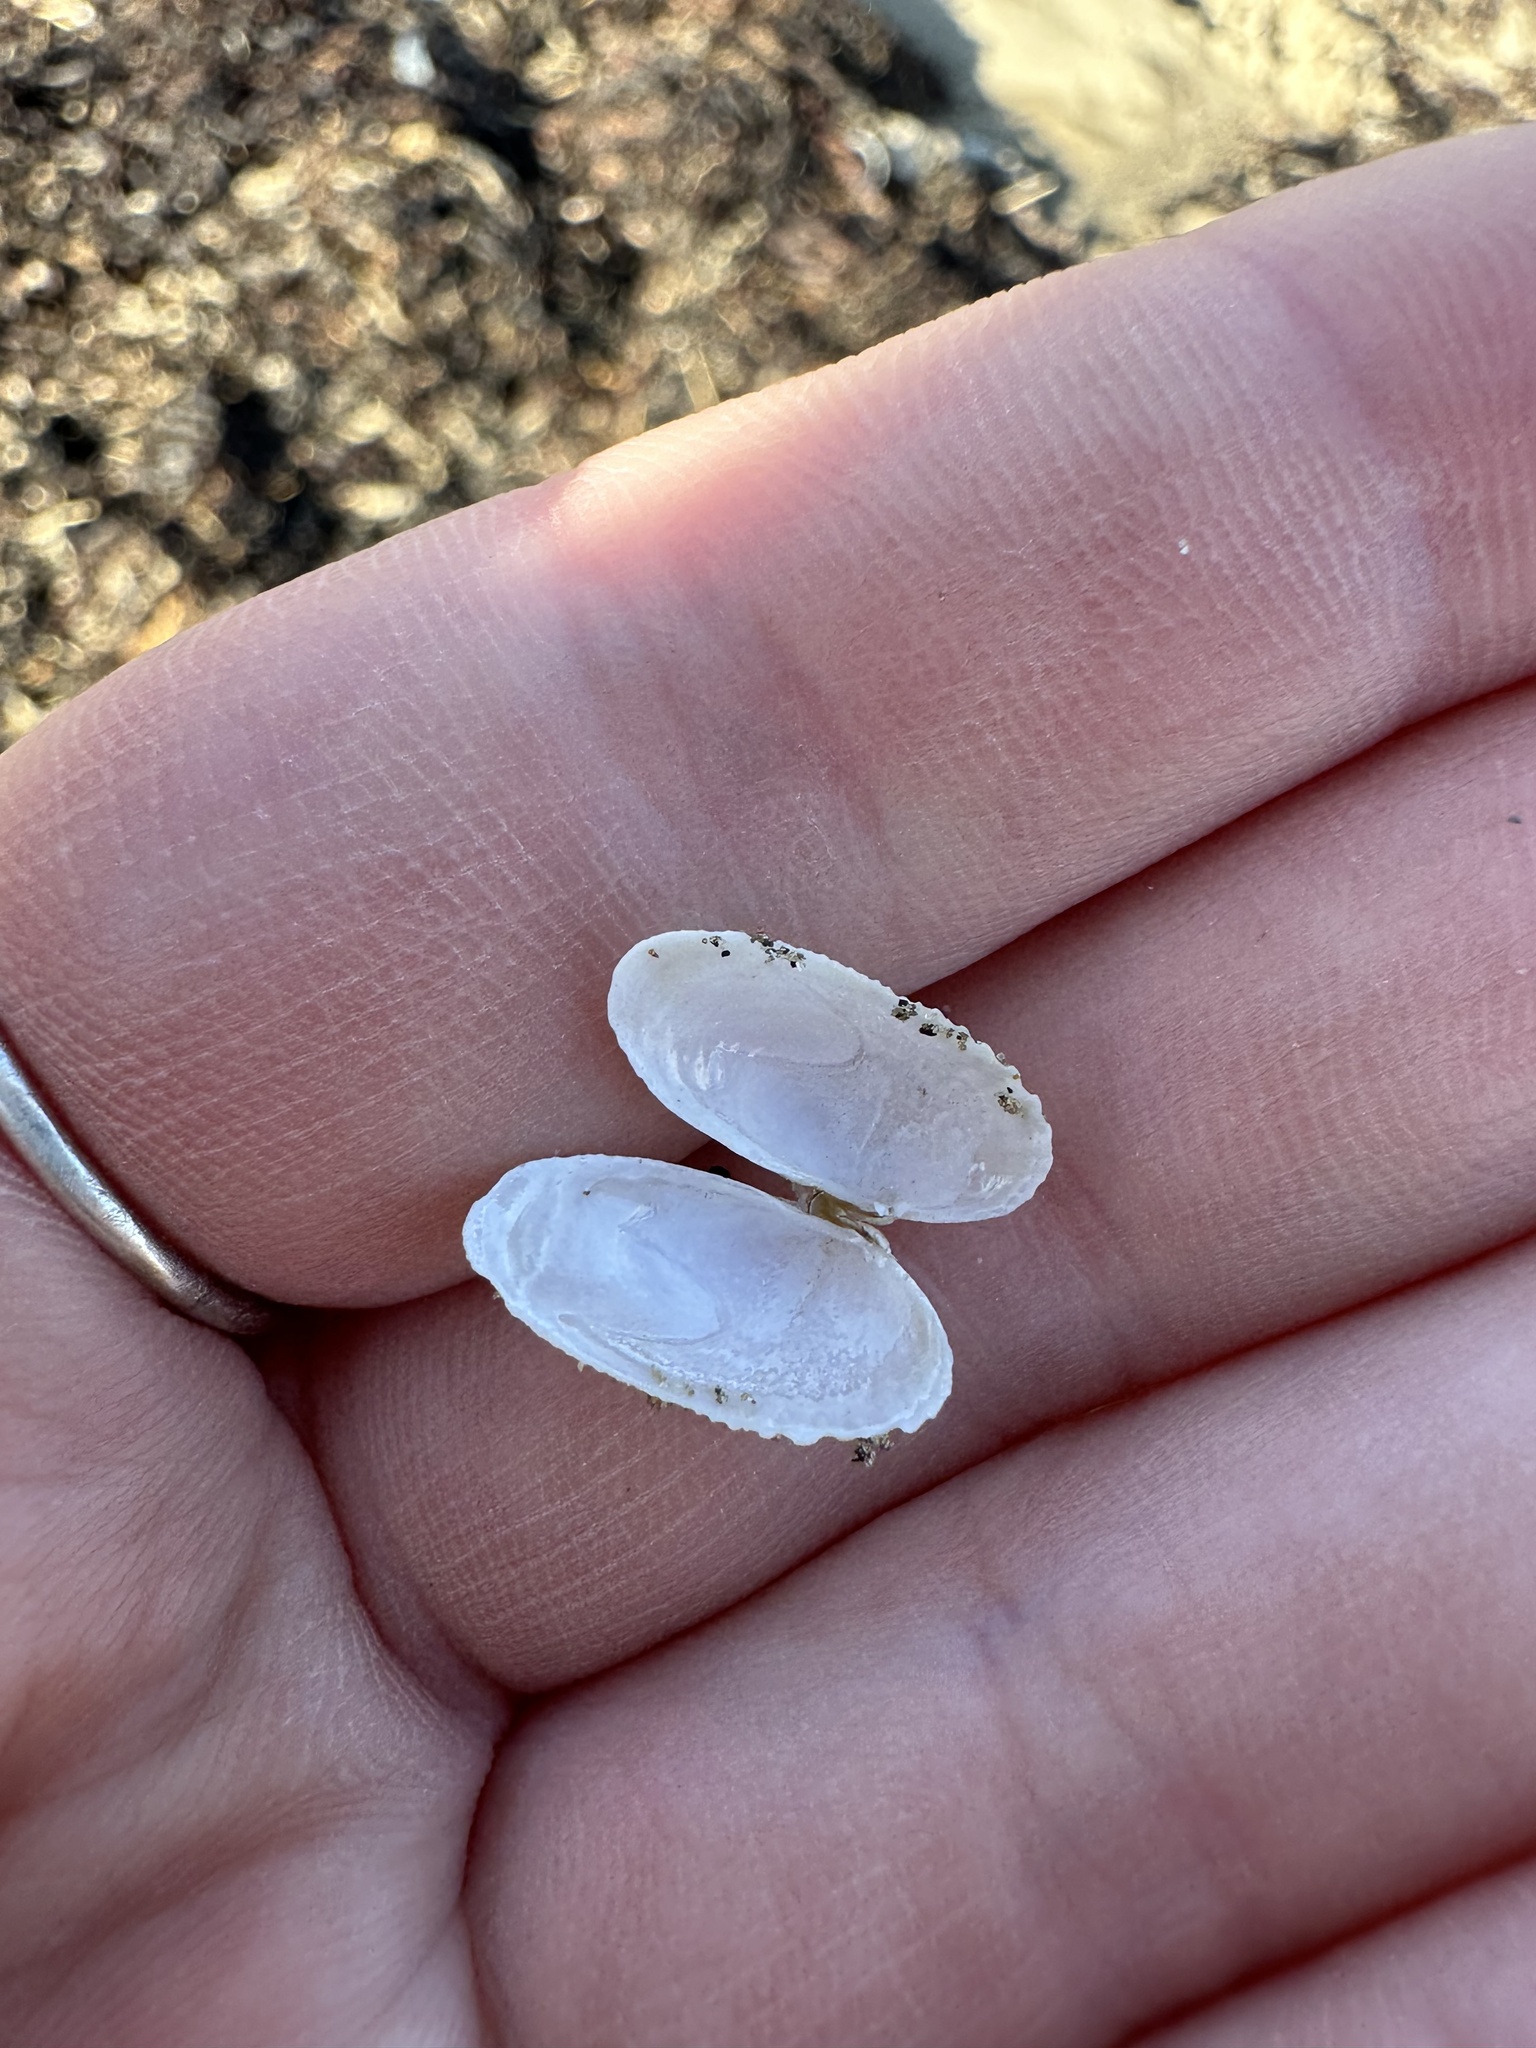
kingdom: Animalia
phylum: Mollusca
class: Bivalvia
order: Venerida
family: Veneridae
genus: Petricolaria
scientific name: Petricolaria pholadiformis
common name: American piddock
